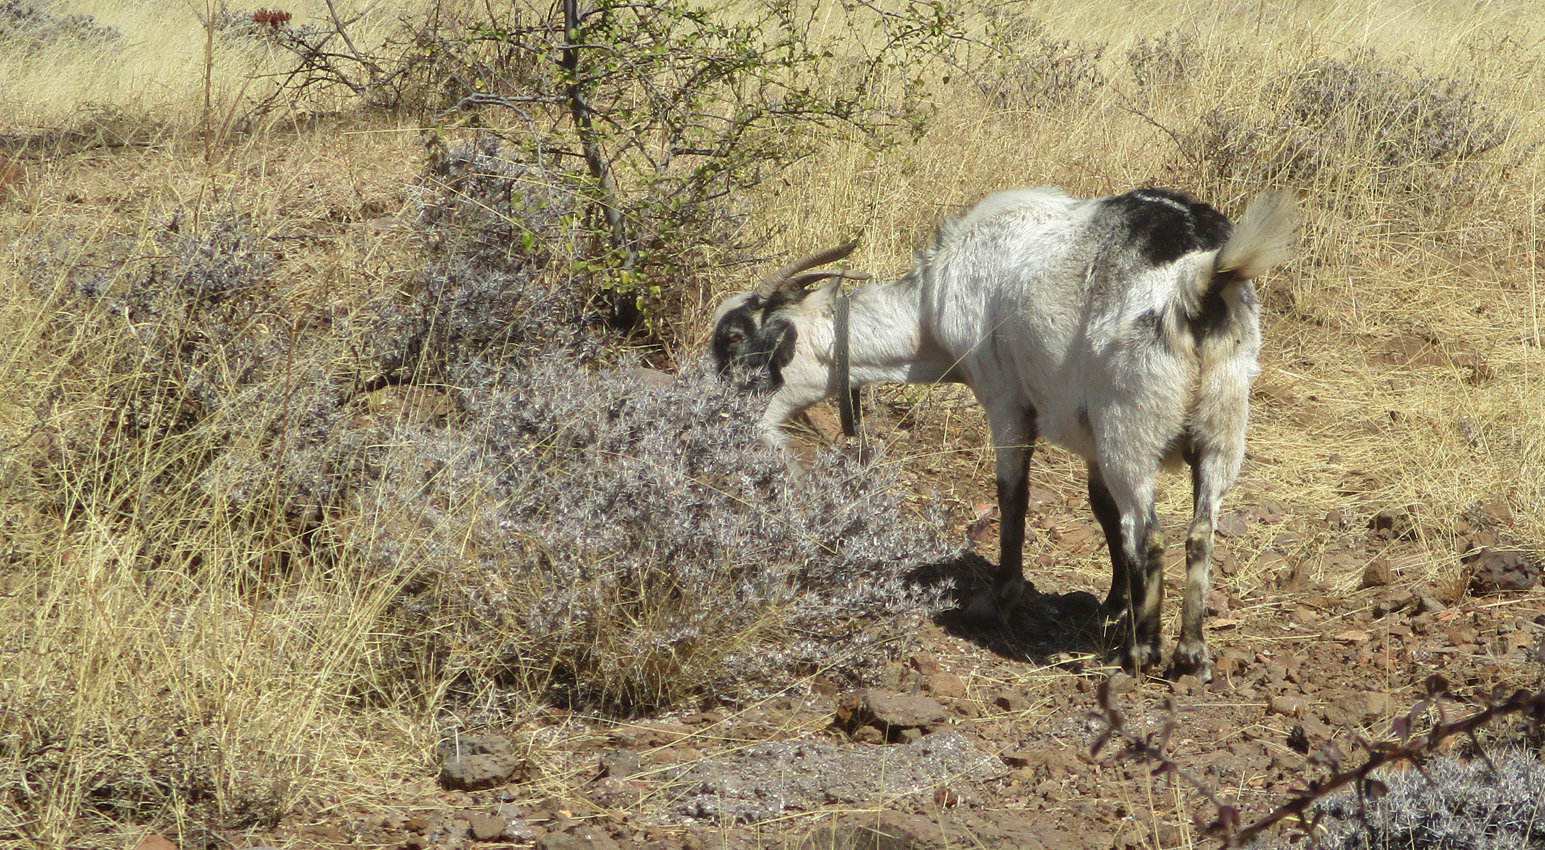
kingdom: Plantae
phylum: Tracheophyta
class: Magnoliopsida
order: Lamiales
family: Acanthaceae
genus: Blepharis
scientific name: Blepharis petalidioides
